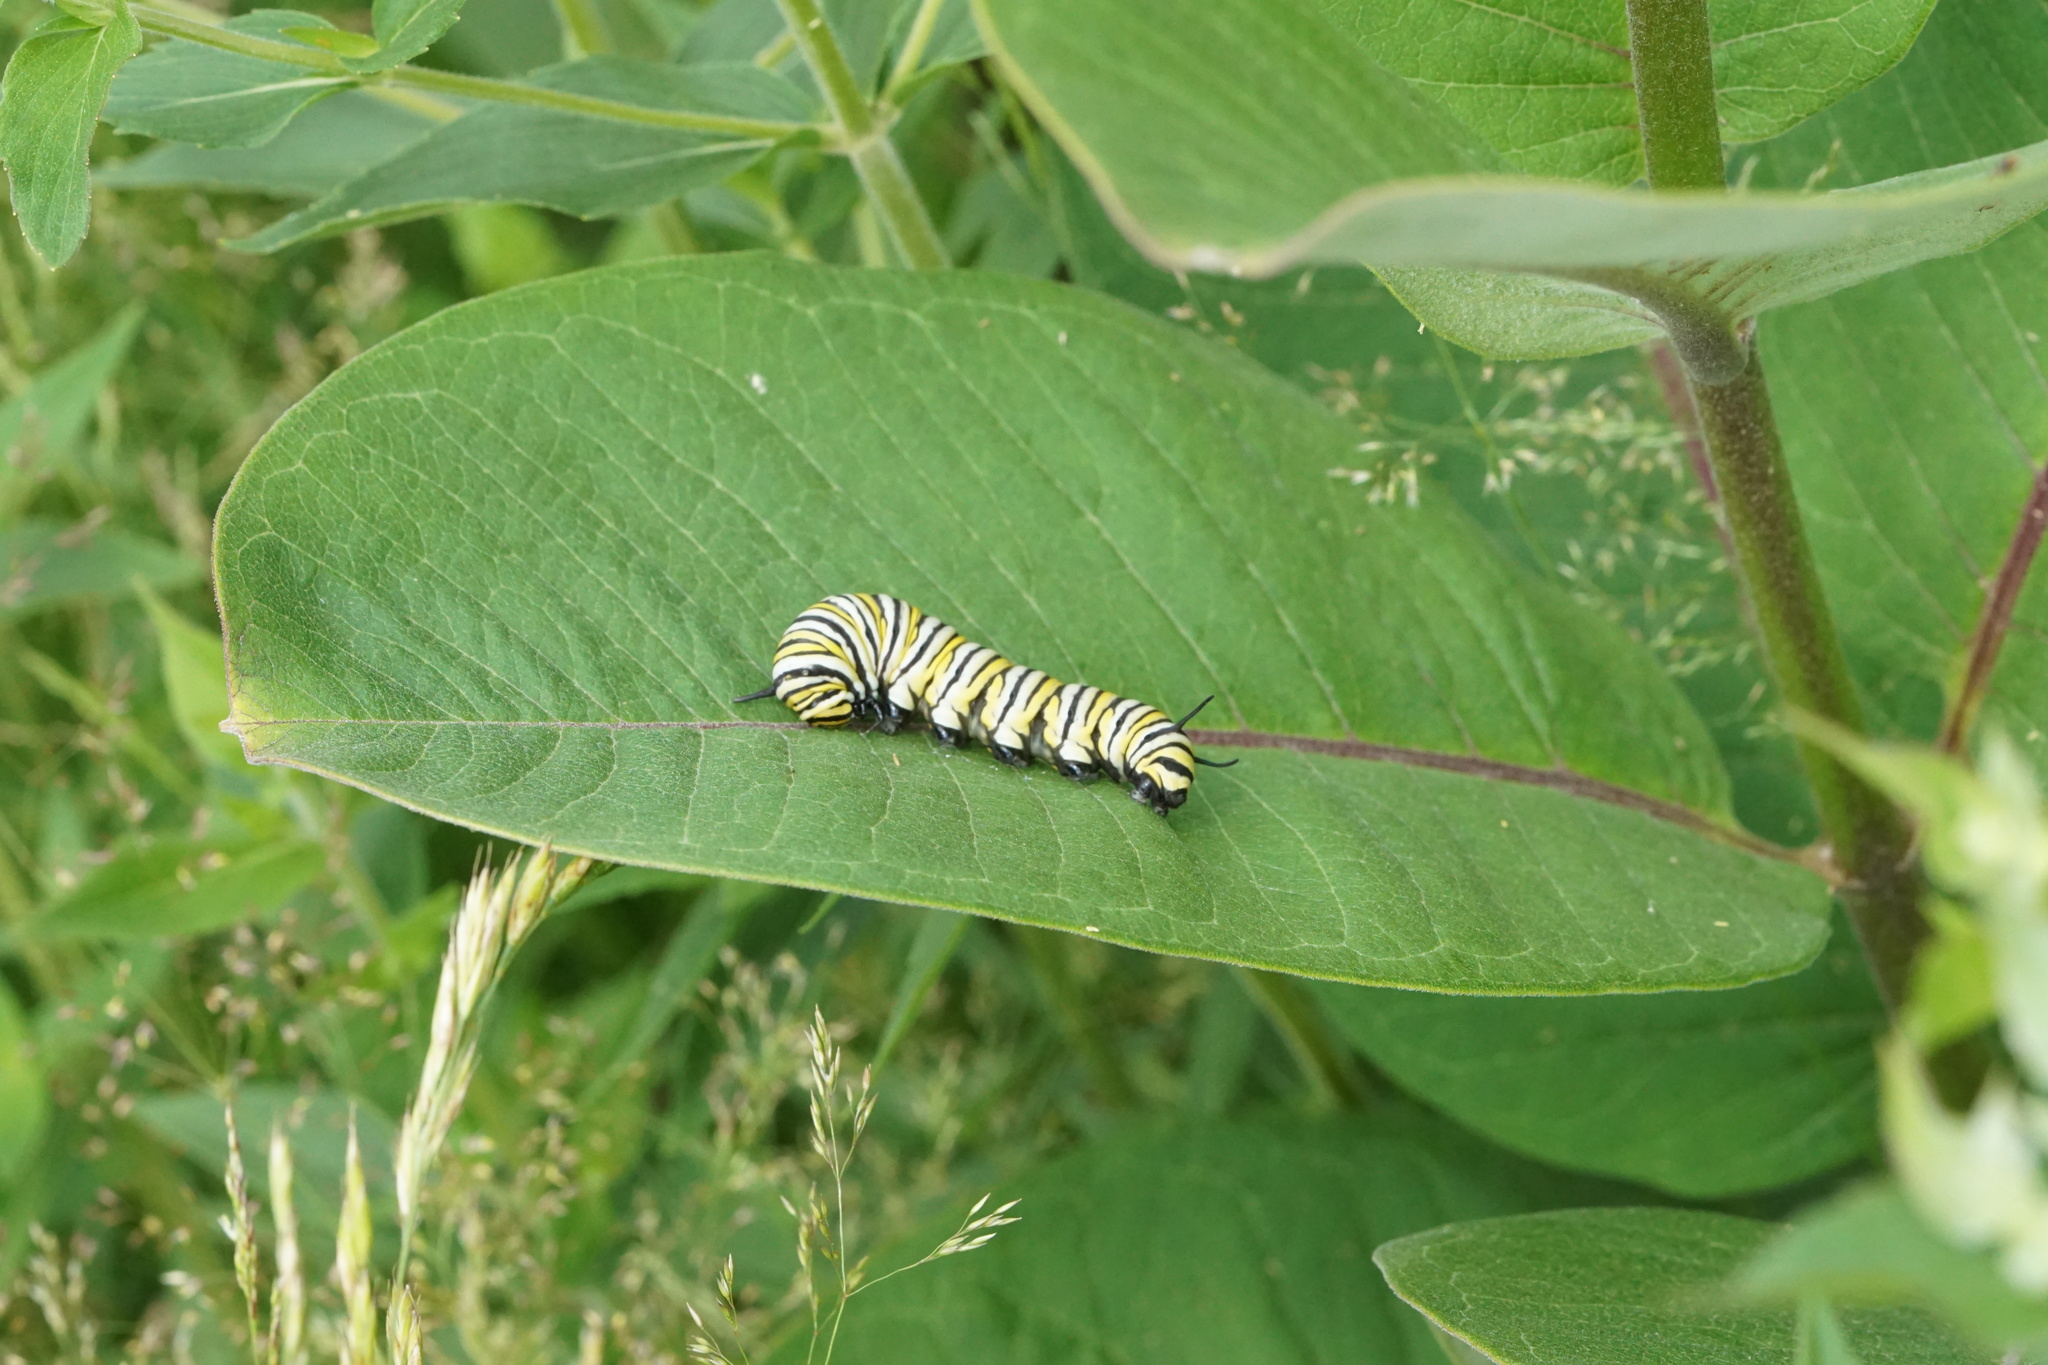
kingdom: Animalia
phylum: Arthropoda
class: Insecta
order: Lepidoptera
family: Nymphalidae
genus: Danaus
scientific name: Danaus plexippus
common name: Monarch
